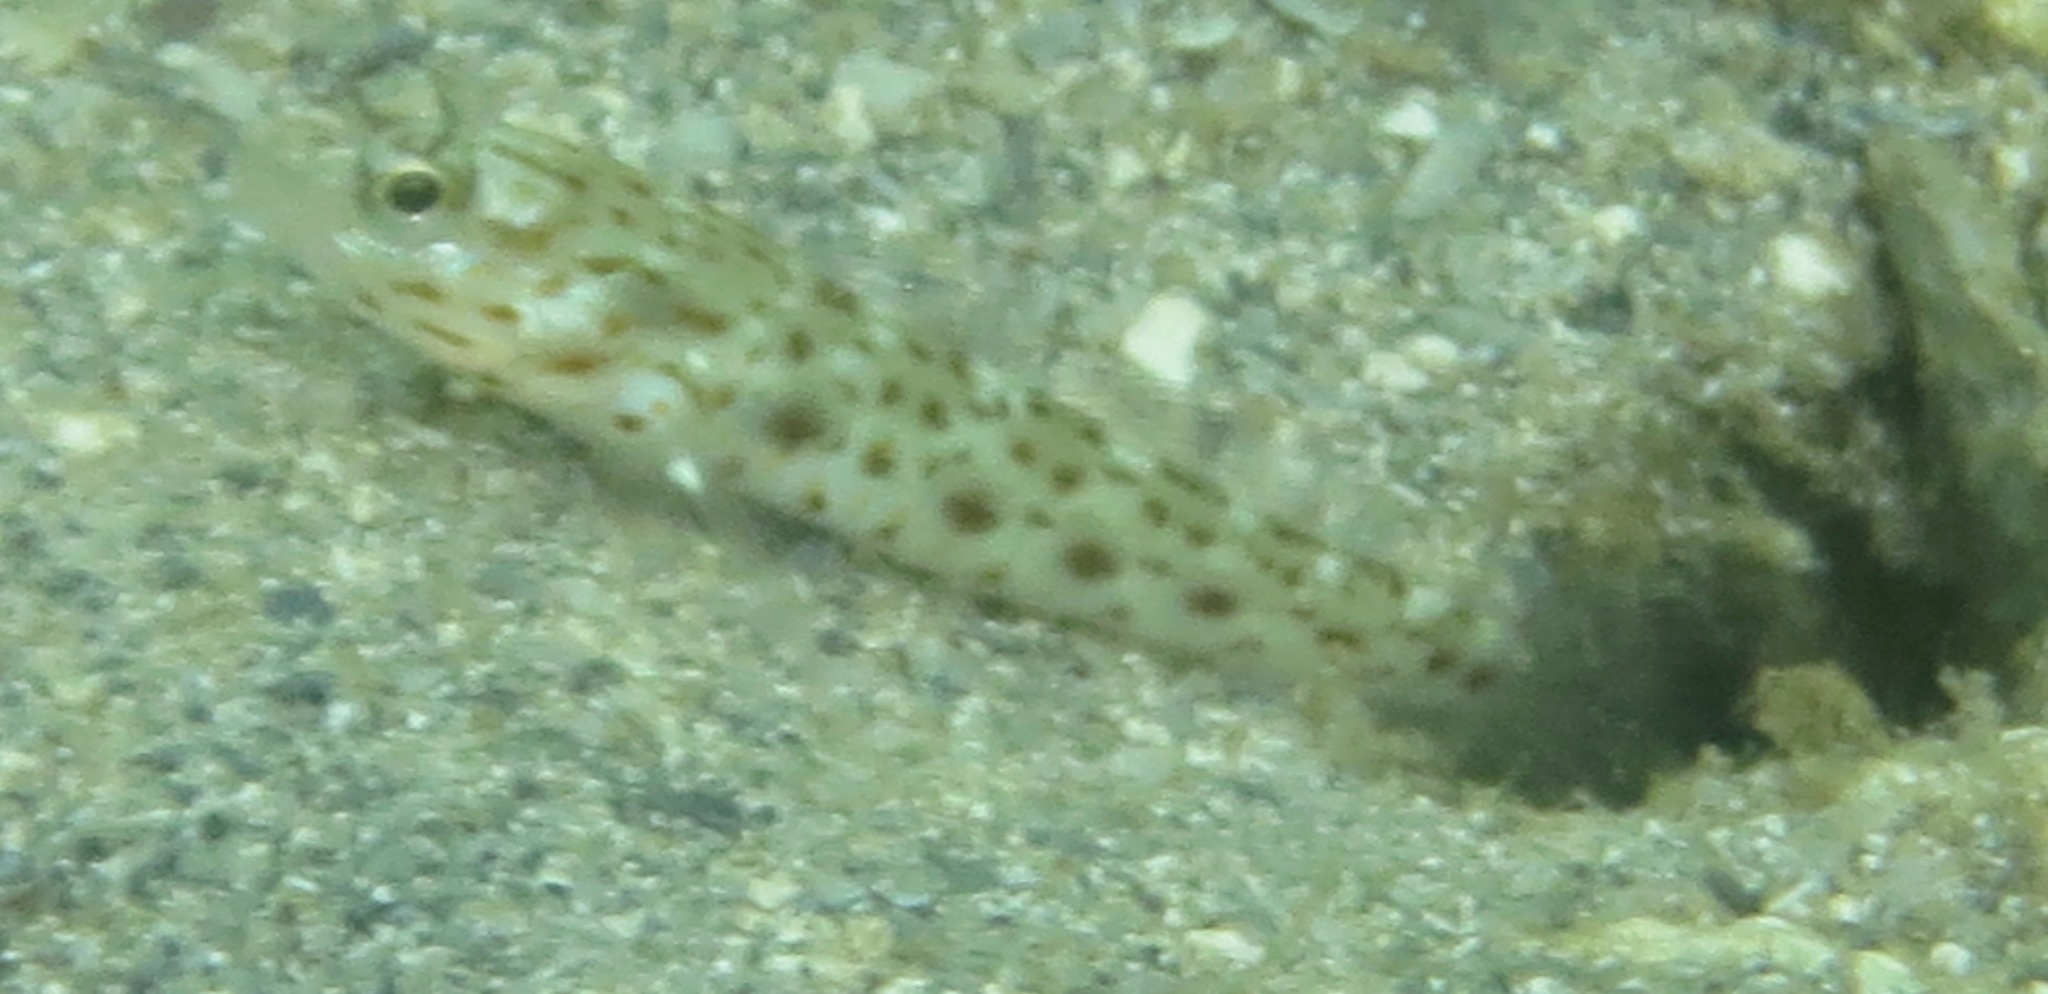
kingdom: Animalia
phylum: Chordata
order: Perciformes
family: Gobiidae
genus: Ctenogobiops
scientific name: Ctenogobiops aurocingulus
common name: Gold-streaked prawn-goby
